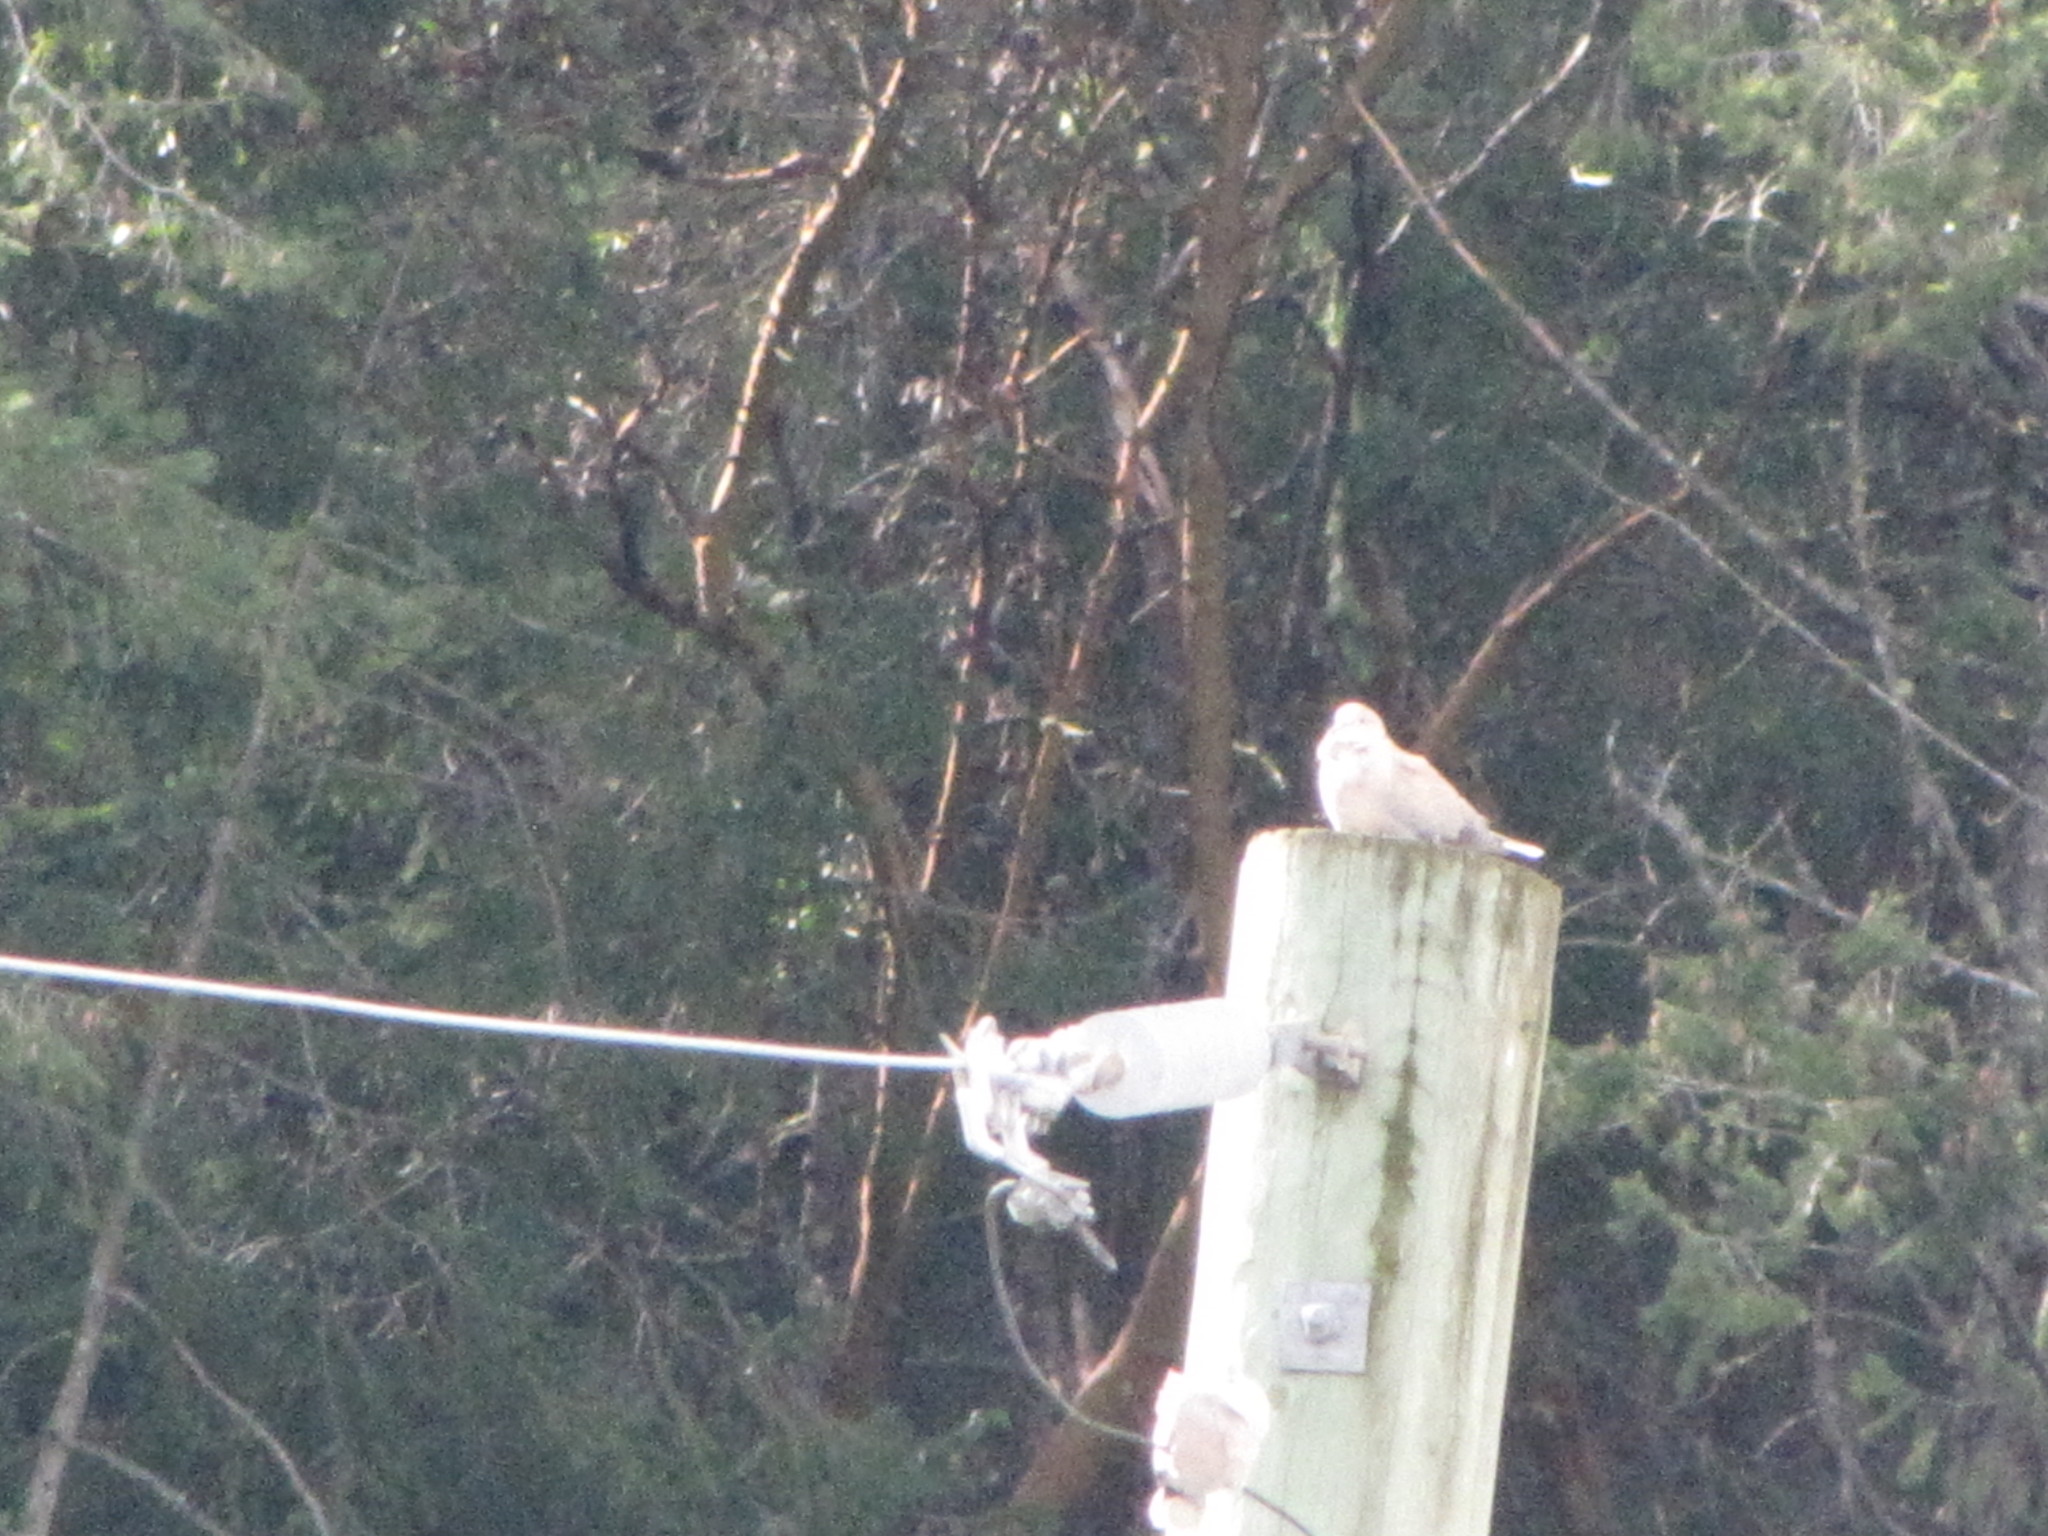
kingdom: Animalia
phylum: Chordata
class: Aves
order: Columbiformes
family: Columbidae
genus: Streptopelia
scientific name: Streptopelia decaocto
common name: Eurasian collared dove
